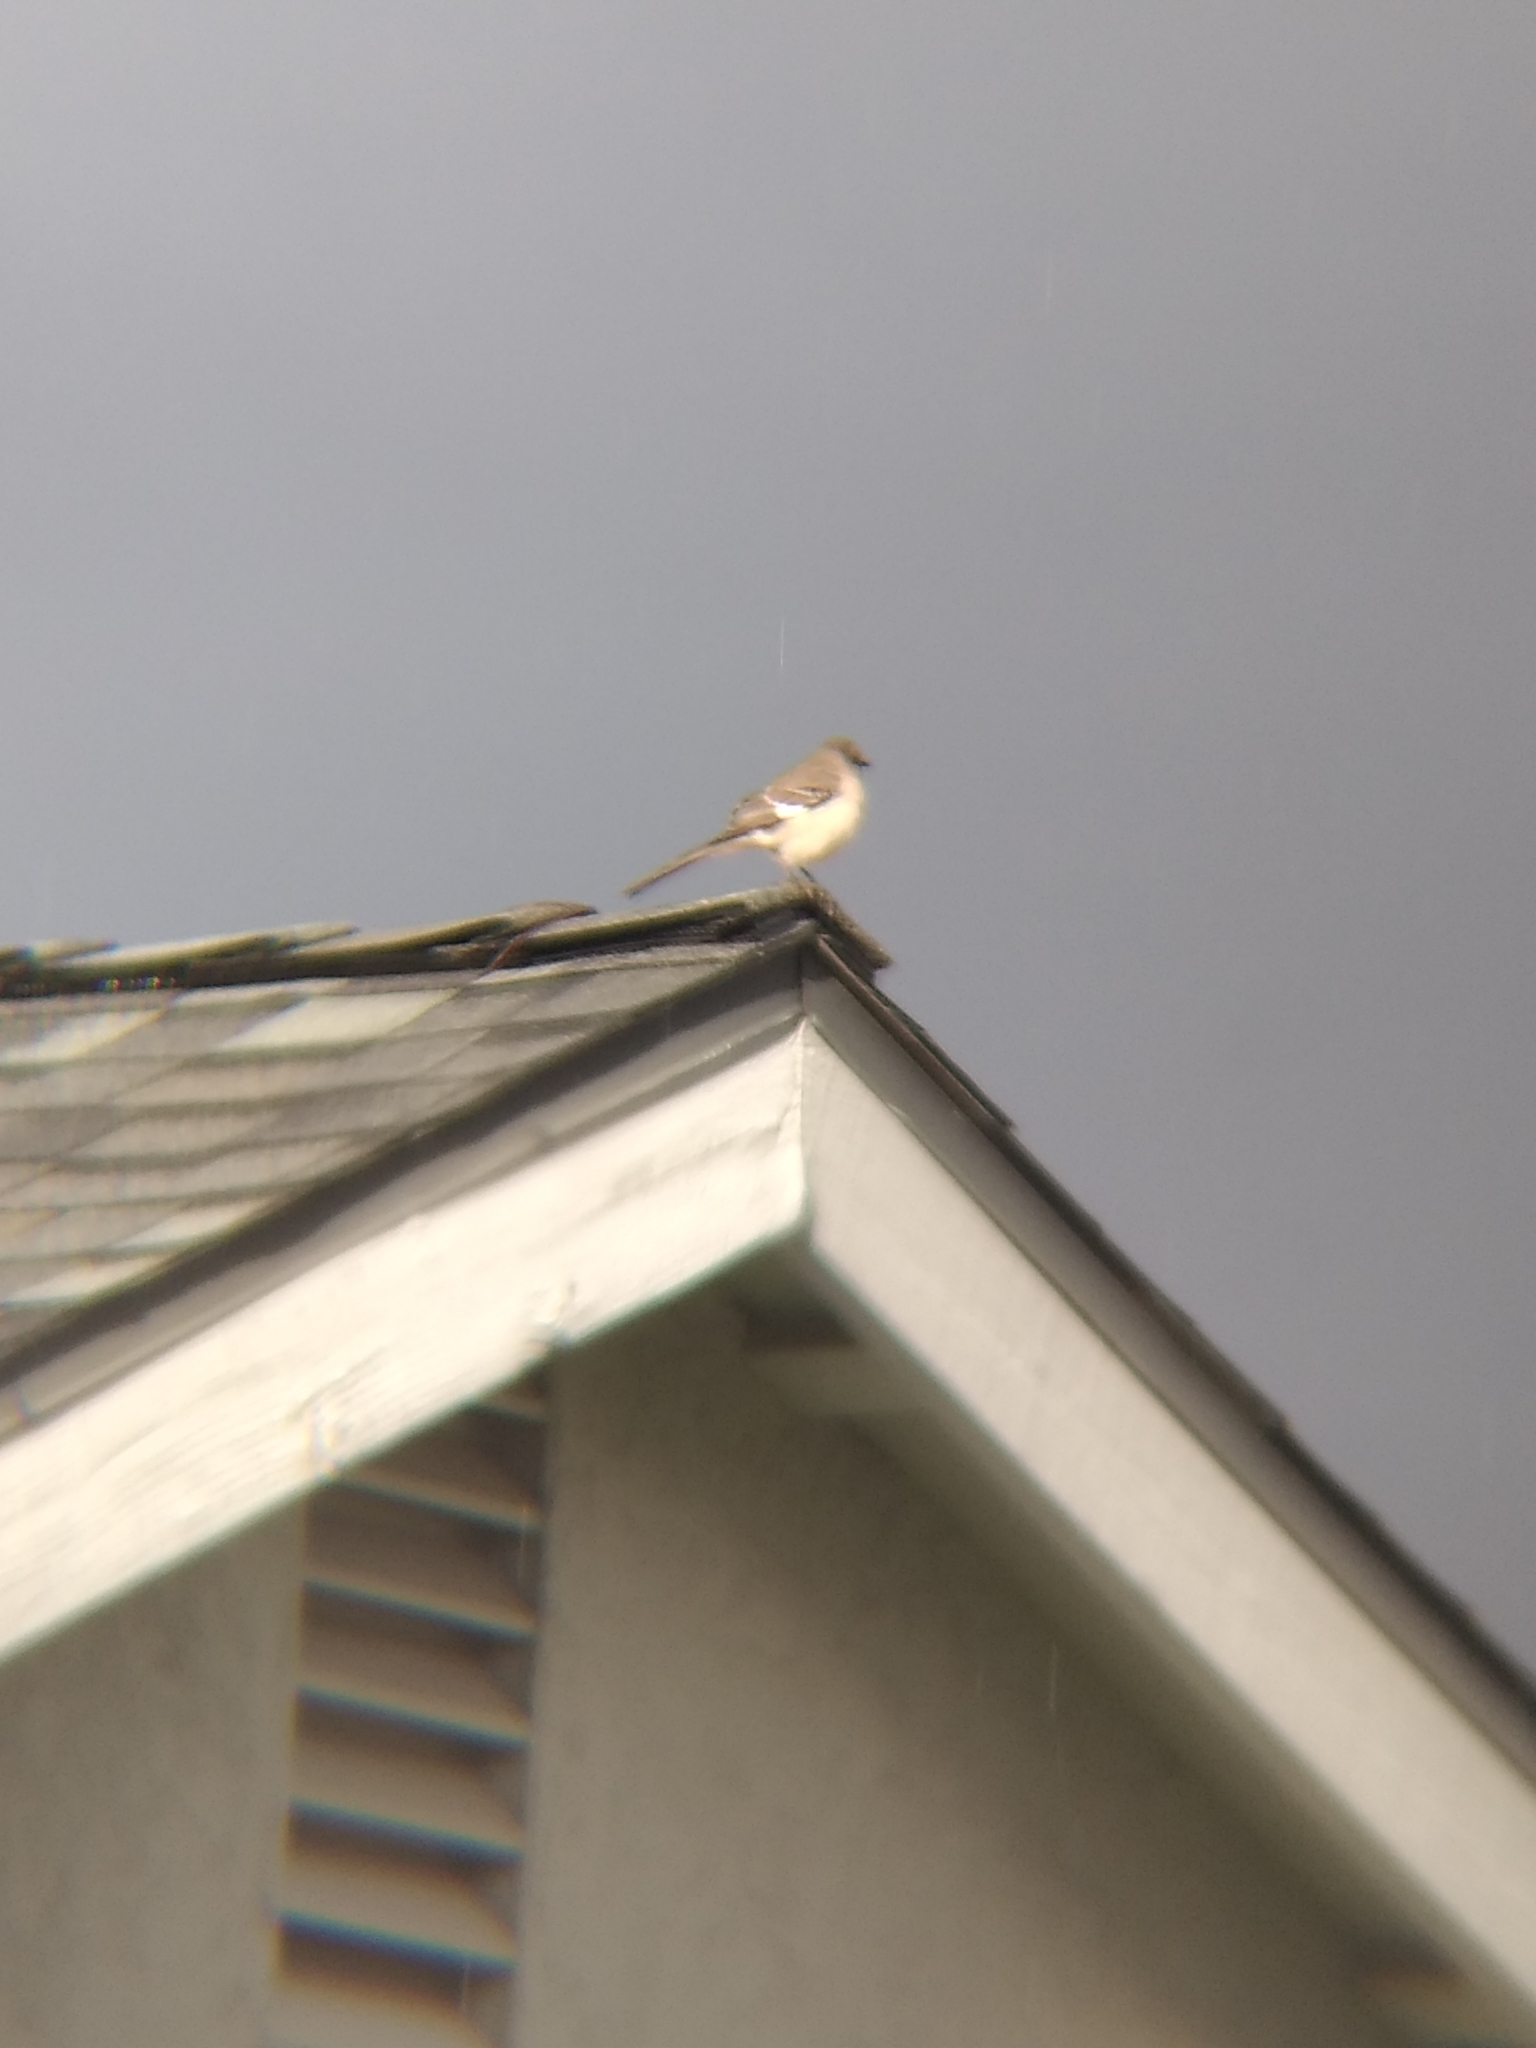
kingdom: Animalia
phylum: Chordata
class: Aves
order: Passeriformes
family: Mimidae
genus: Mimus
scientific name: Mimus polyglottos
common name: Northern mockingbird
